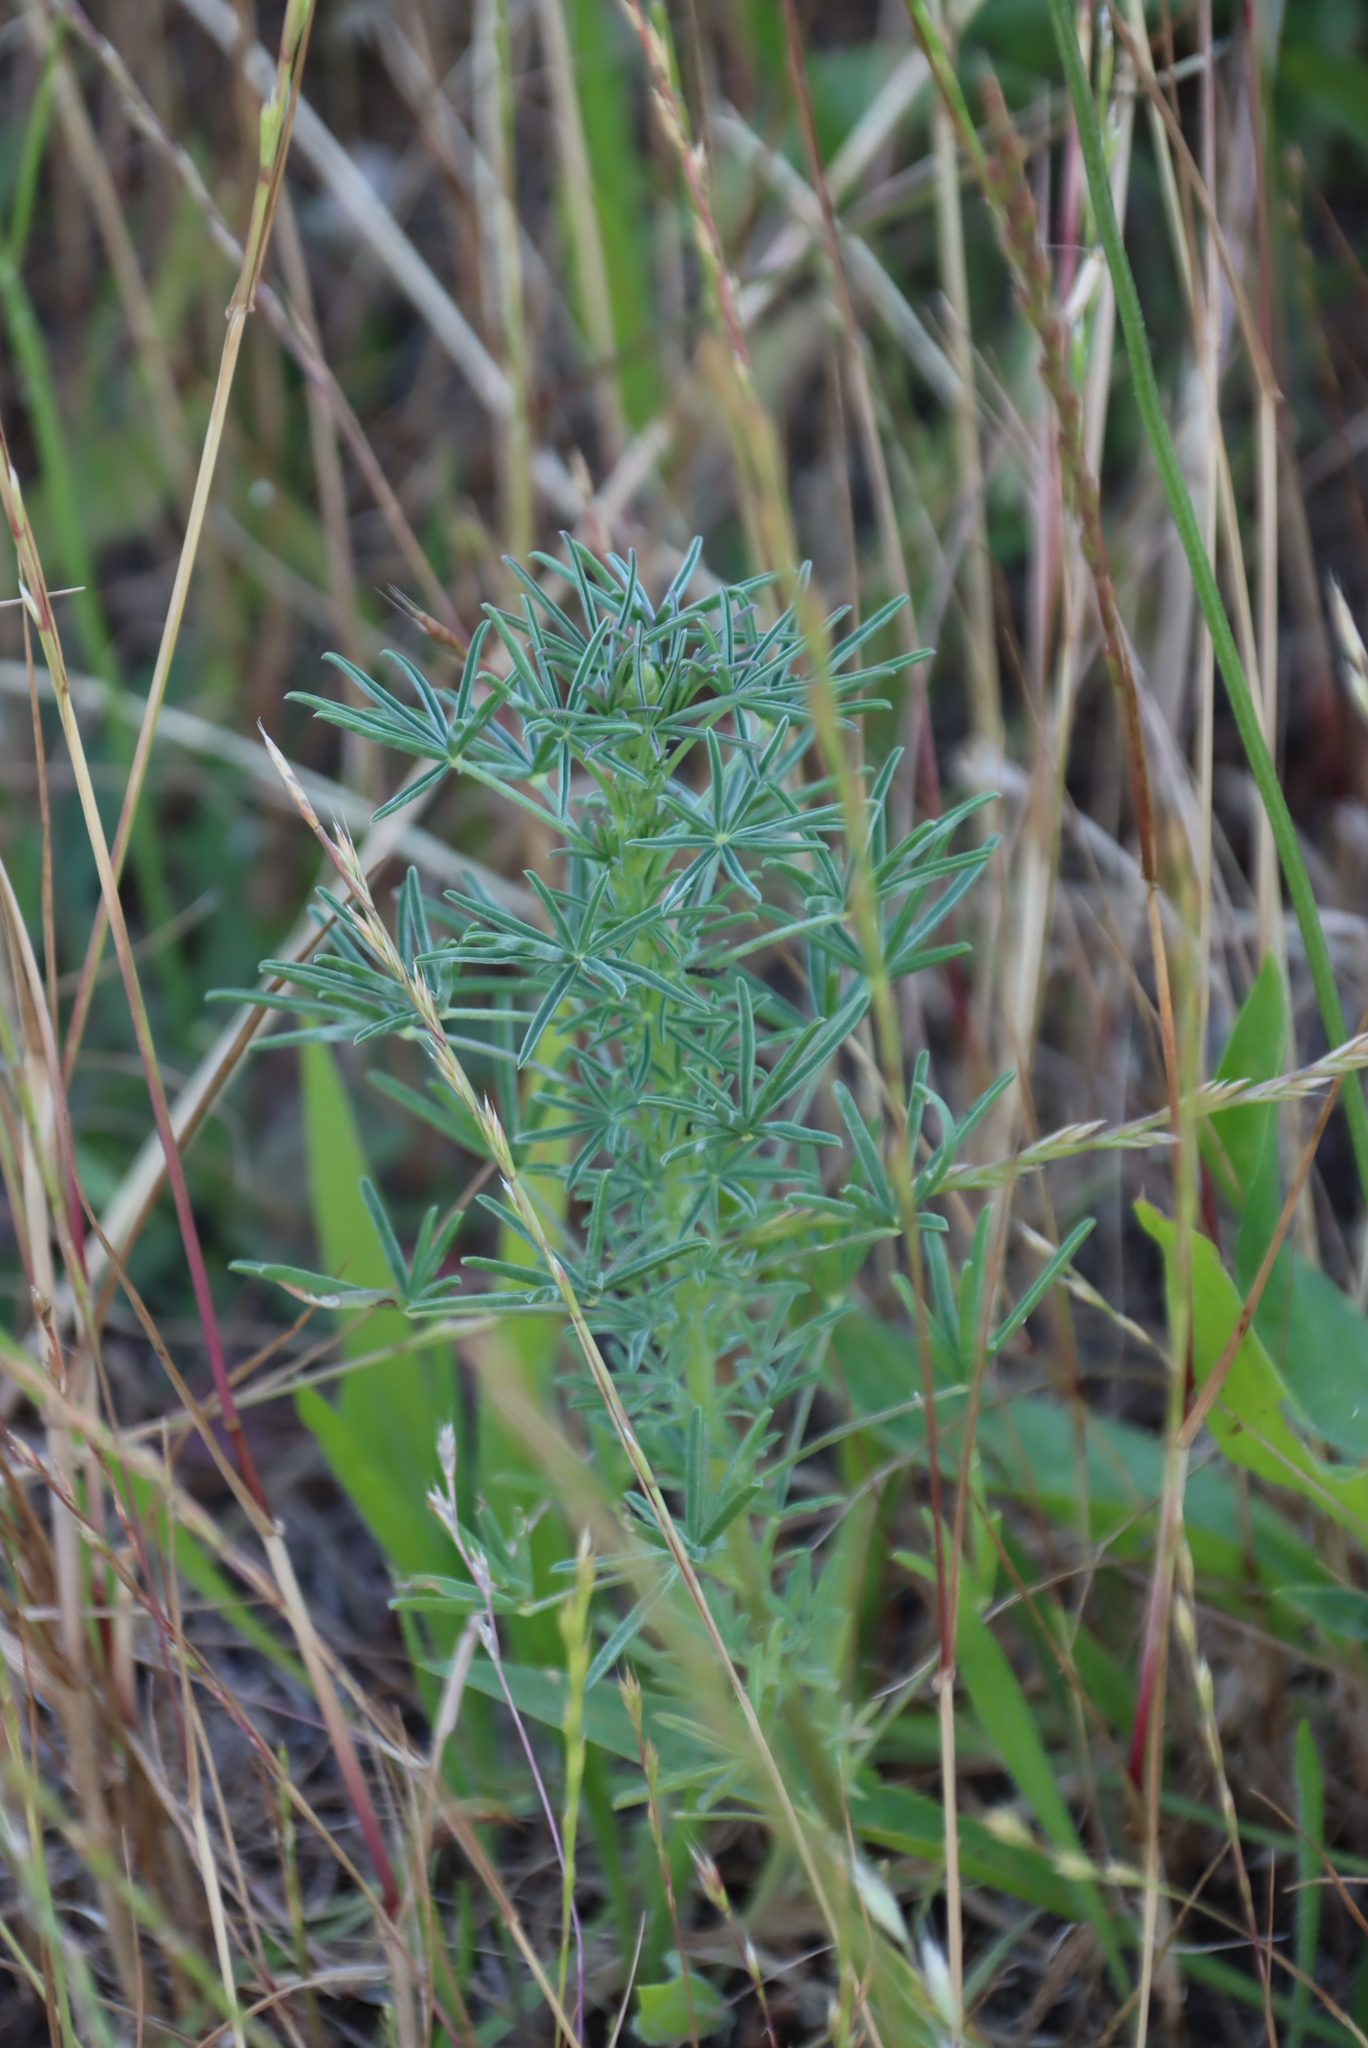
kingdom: Plantae
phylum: Tracheophyta
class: Magnoliopsida
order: Fabales
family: Fabaceae
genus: Lupinus
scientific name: Lupinus angustifolius
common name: Narrow-leaved lupin
